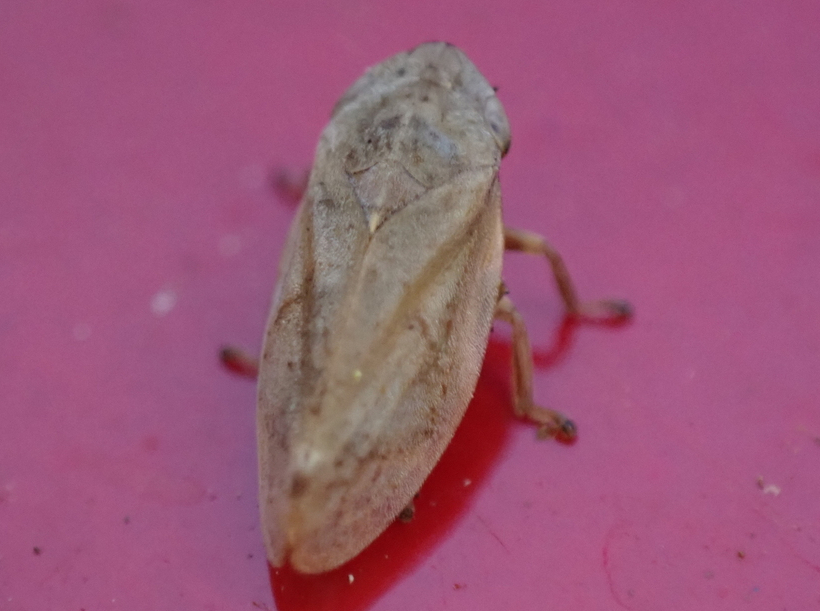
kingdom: Animalia
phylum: Arthropoda
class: Insecta
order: Hemiptera
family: Aphrophoridae
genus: Philaenus
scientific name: Philaenus spumarius
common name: Meadow spittlebug
